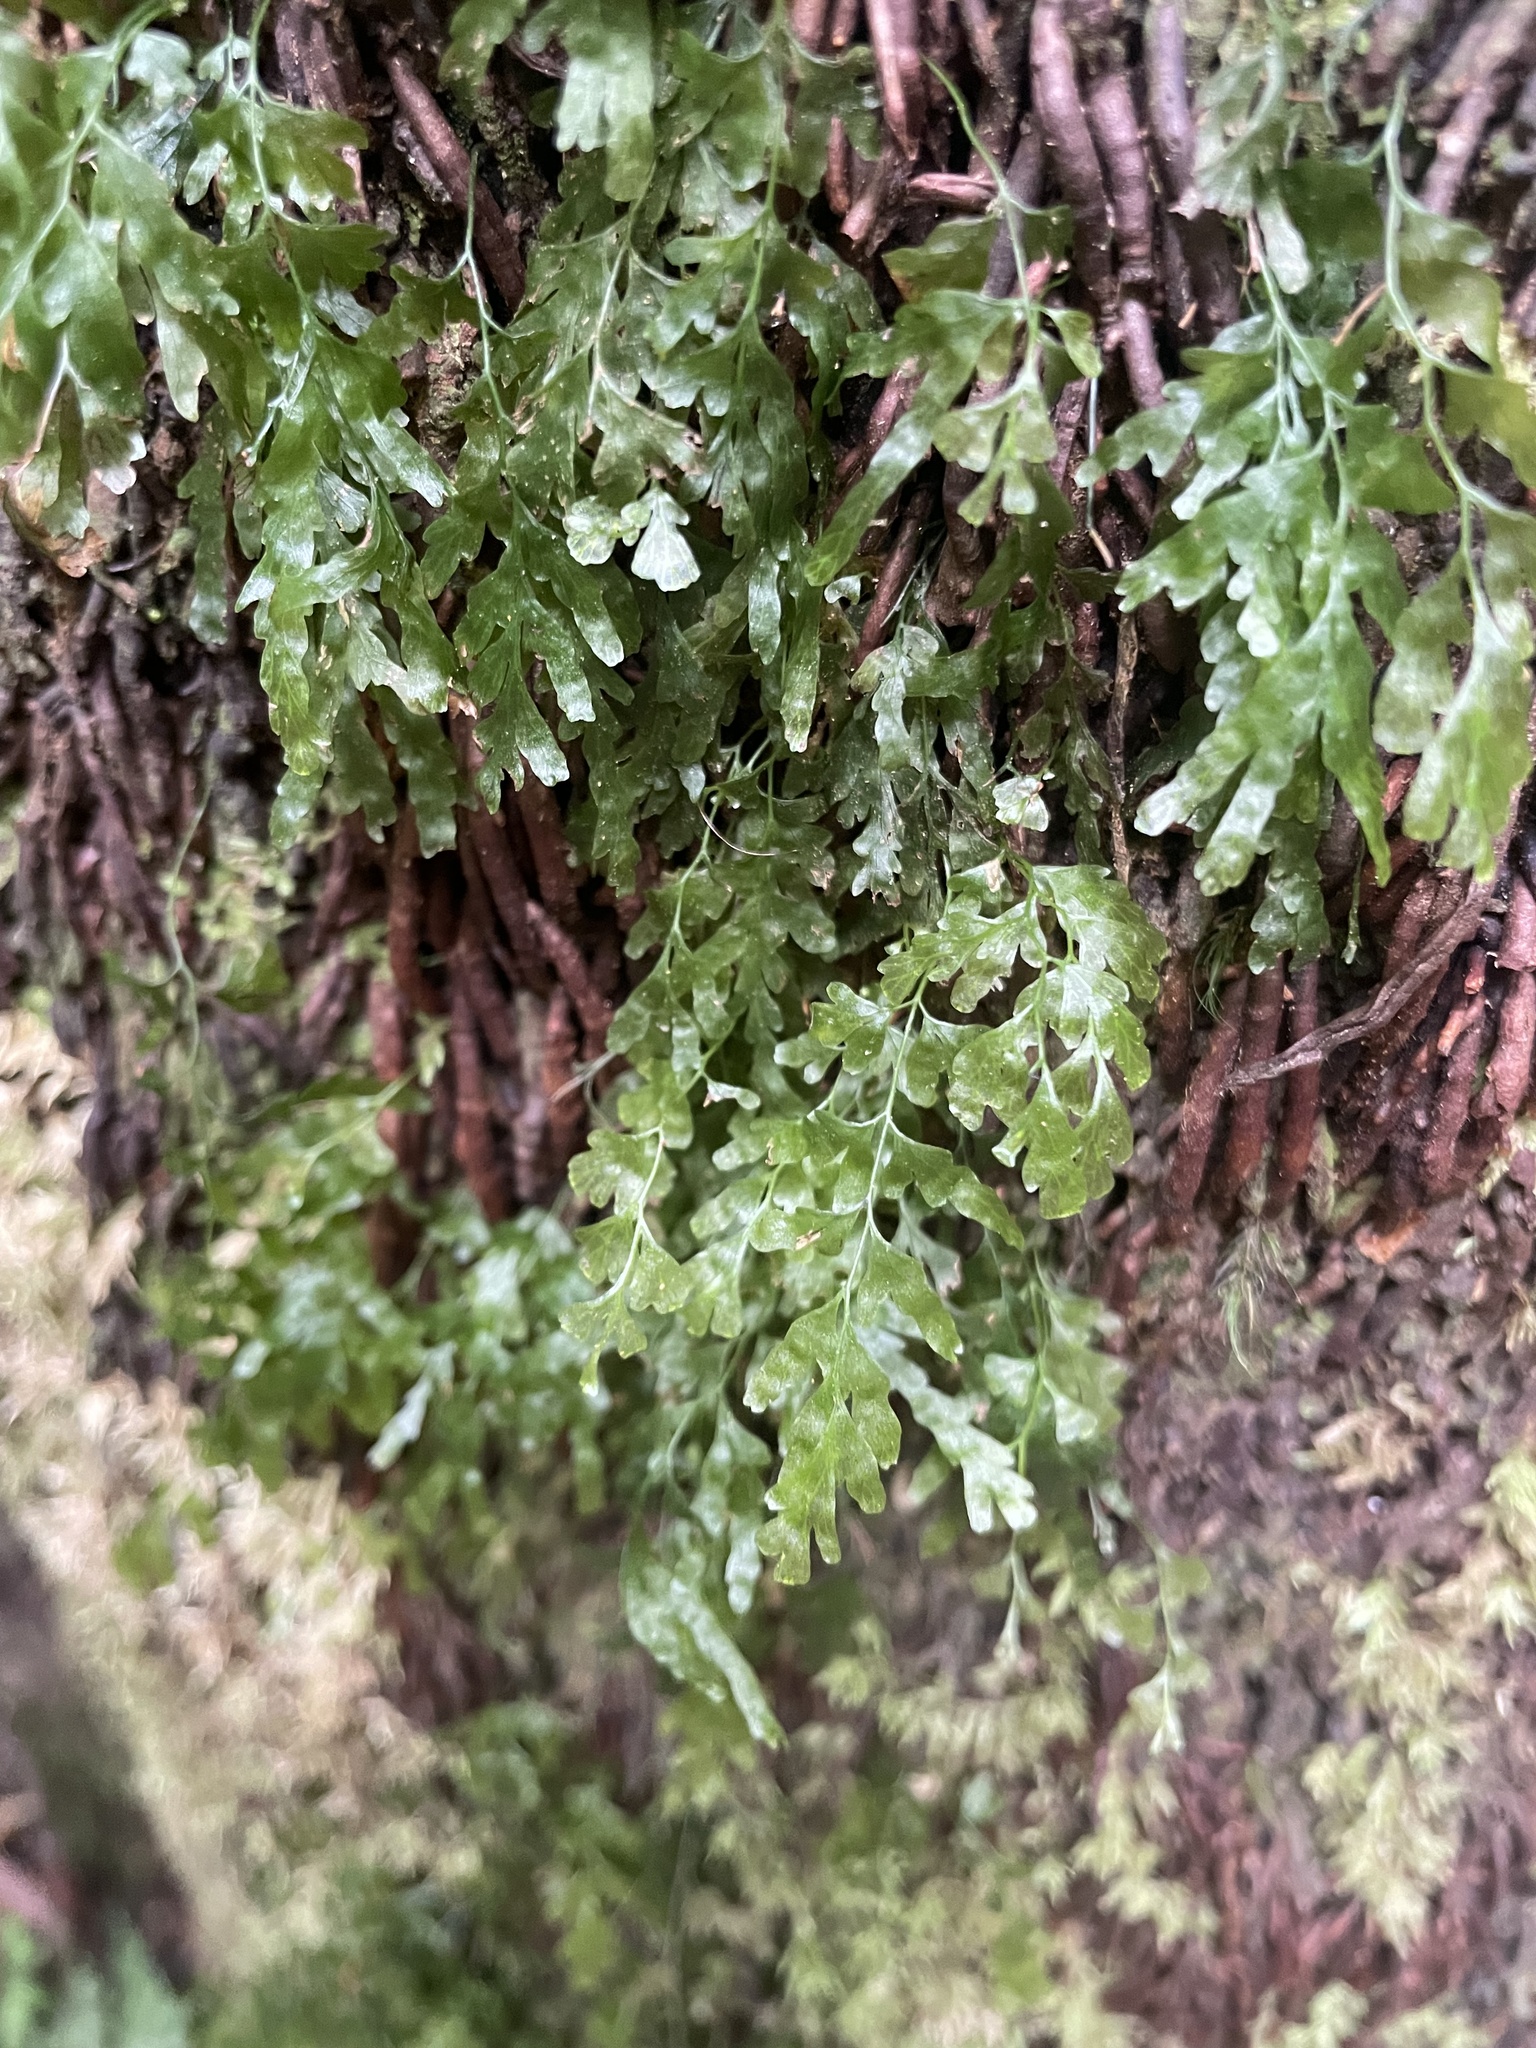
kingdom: Plantae
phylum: Tracheophyta
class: Polypodiopsida
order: Hymenophyllales
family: Hymenophyllaceae
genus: Polyphlebium
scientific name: Polyphlebium venosum
